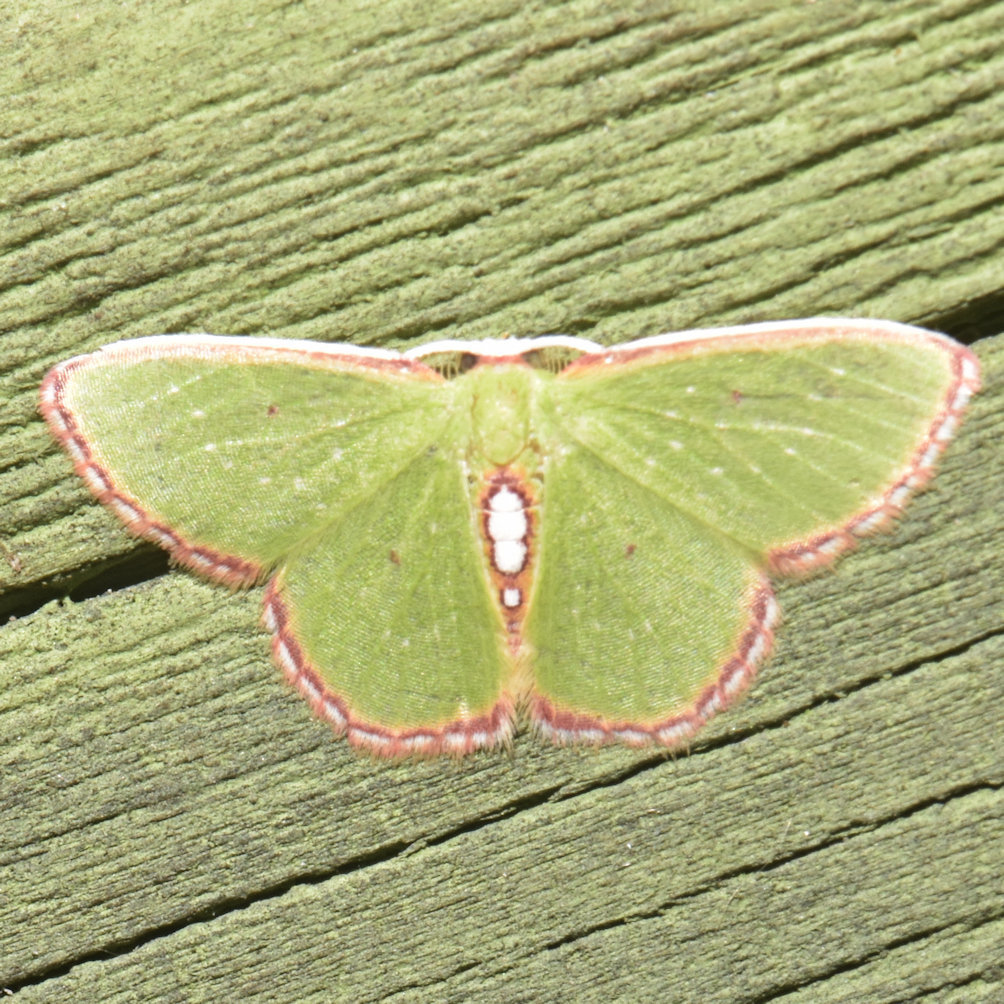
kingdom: Animalia
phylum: Arthropoda
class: Insecta
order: Lepidoptera
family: Geometridae
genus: Synchlora
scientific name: Synchlora herbaria
